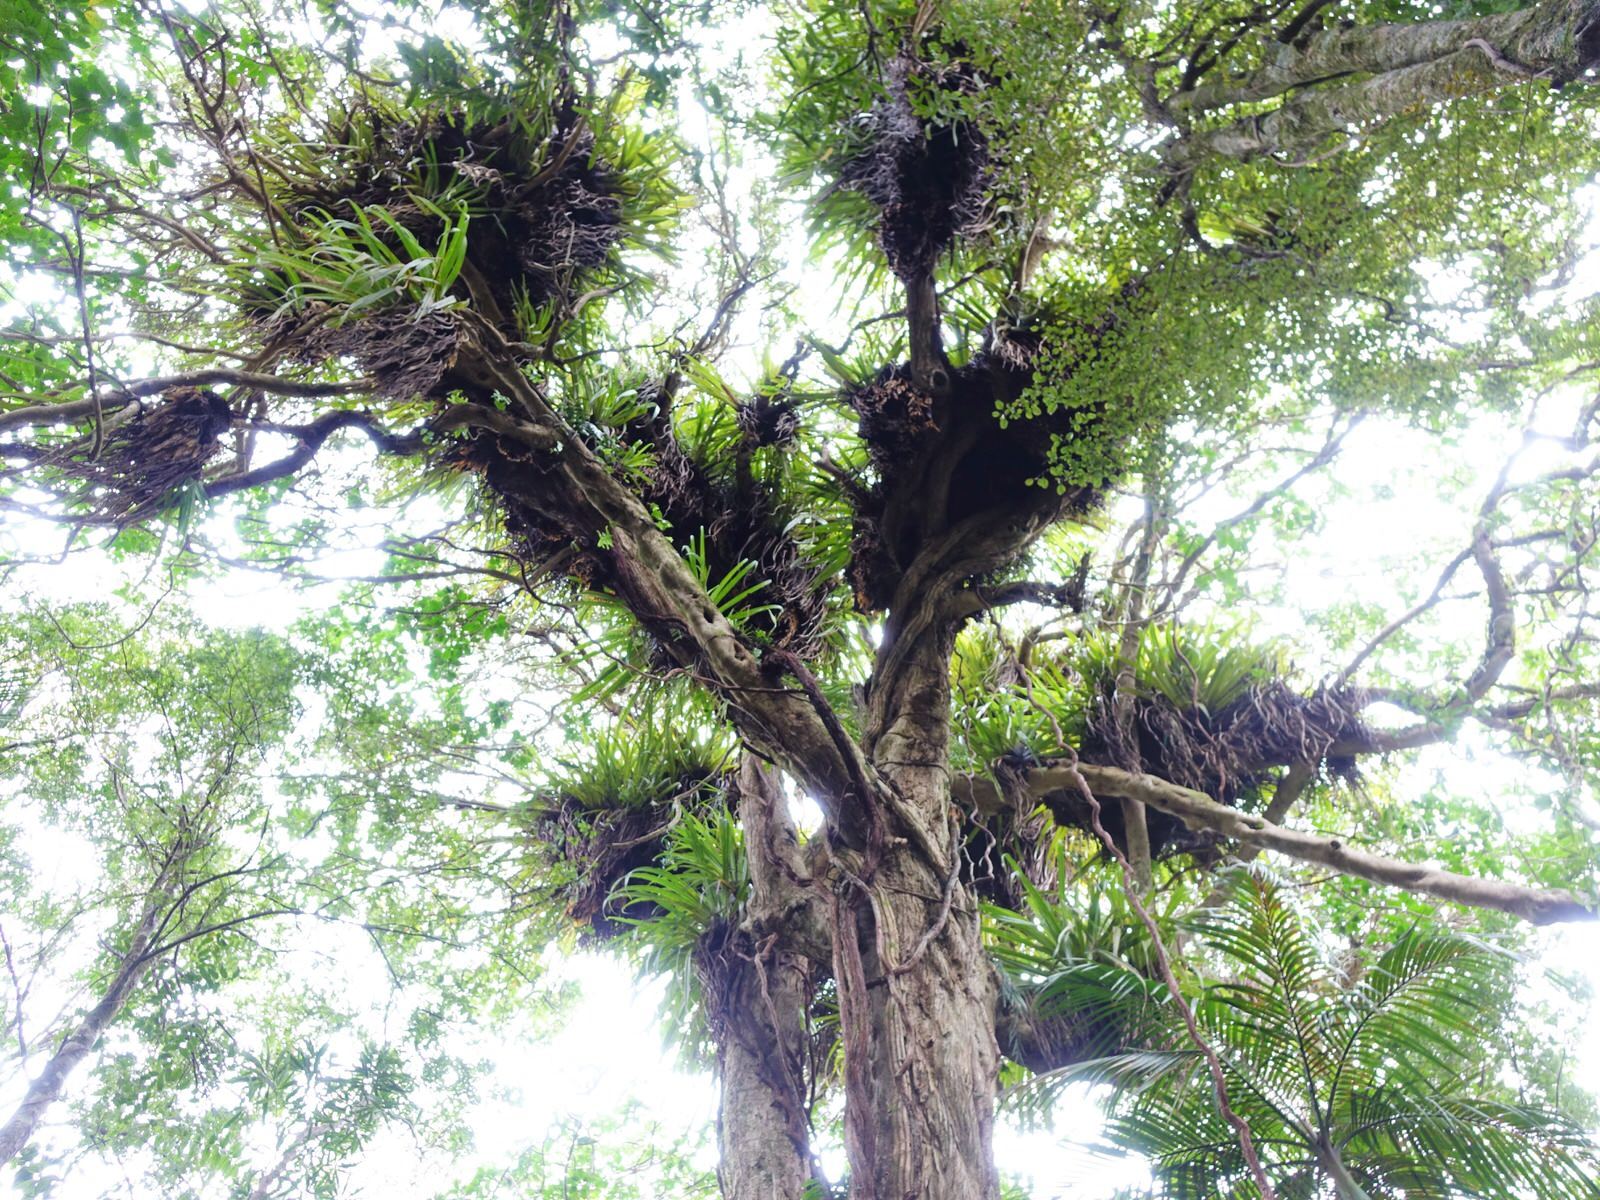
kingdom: Plantae
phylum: Tracheophyta
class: Liliopsida
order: Asparagales
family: Asteliaceae
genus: Astelia
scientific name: Astelia hastata
